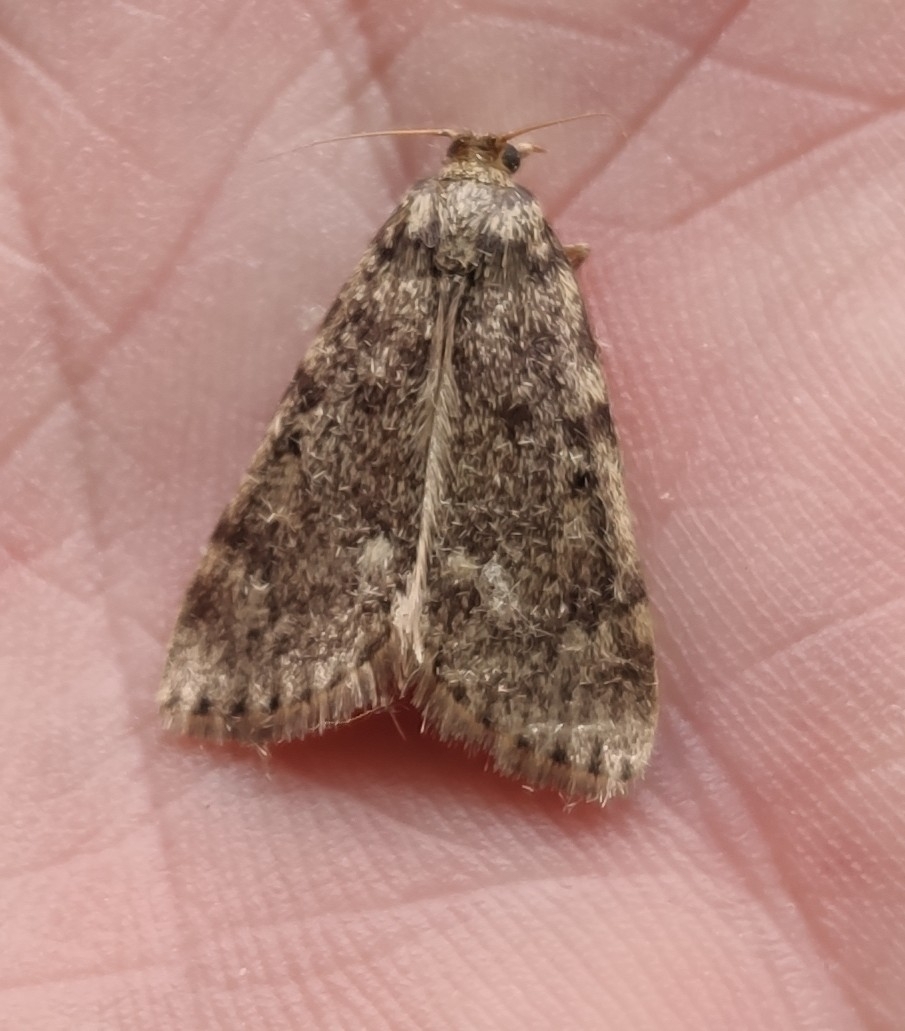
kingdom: Animalia
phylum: Arthropoda
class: Insecta
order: Lepidoptera
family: Pyralidae
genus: Aglossa
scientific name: Aglossa pinguinalis
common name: Large tabby
